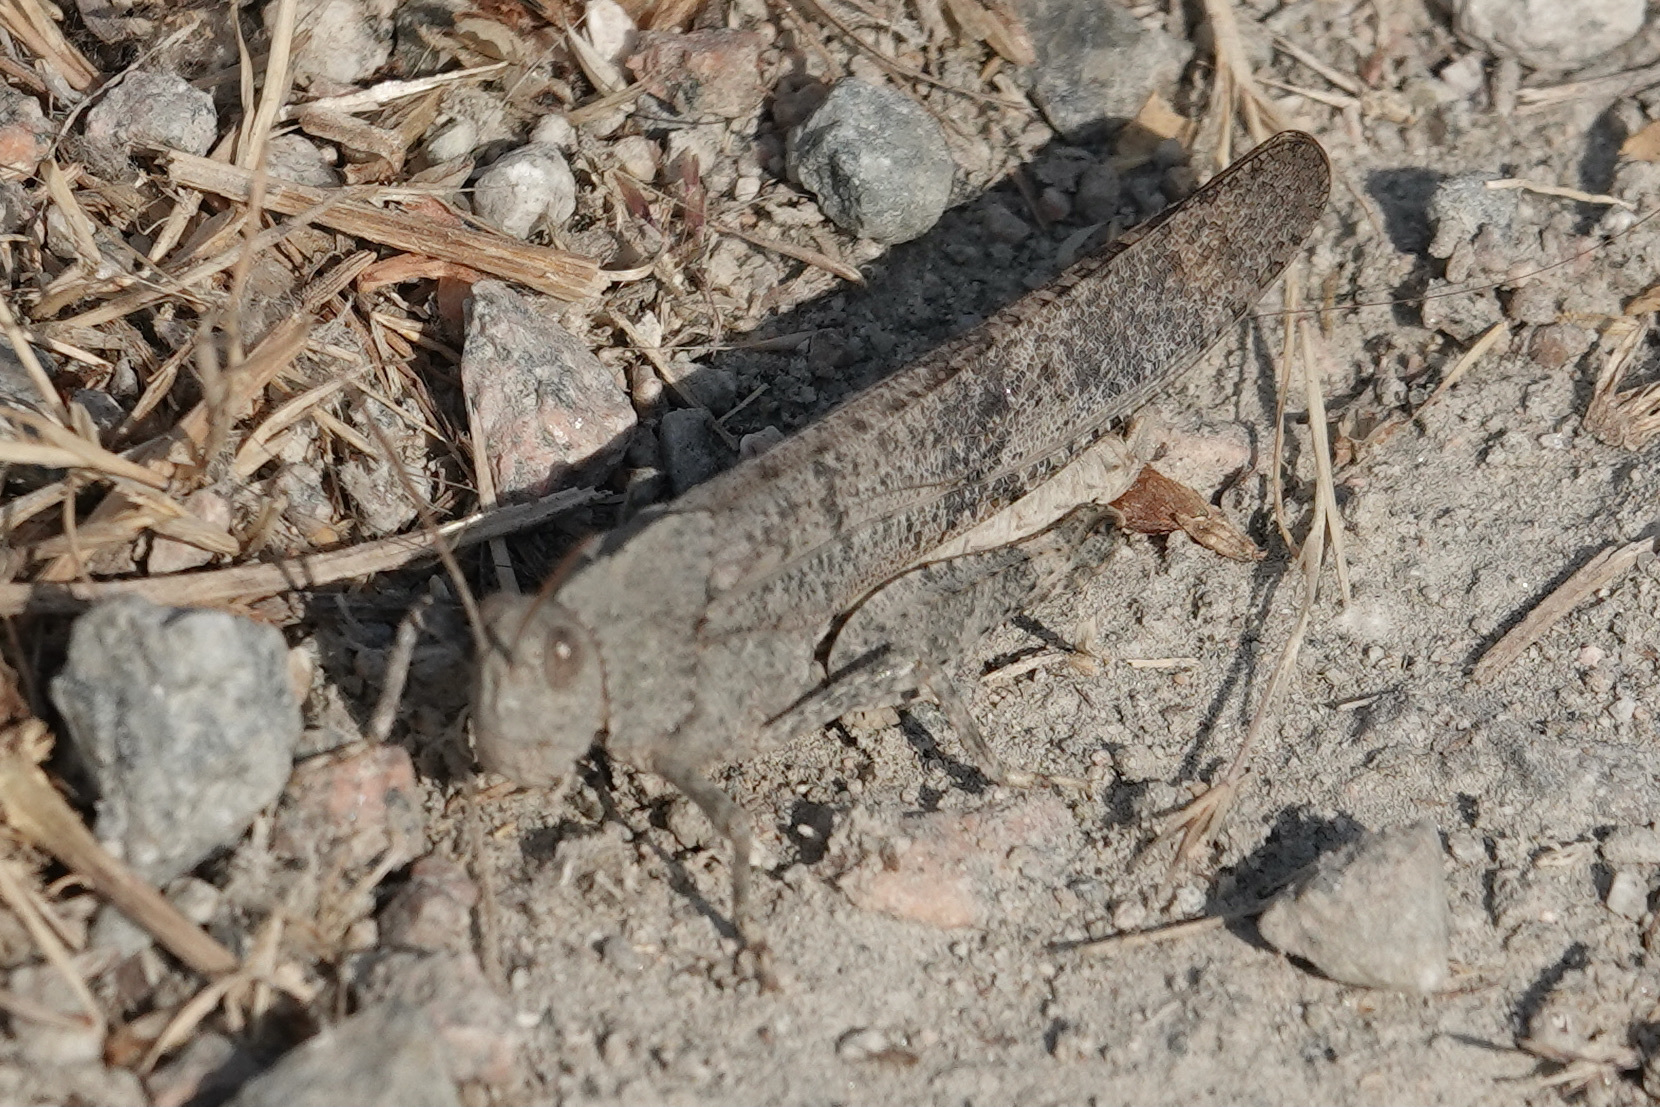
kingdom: Animalia
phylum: Arthropoda
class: Insecta
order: Orthoptera
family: Acrididae
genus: Dissosteira
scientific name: Dissosteira carolina
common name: Carolina grasshopper
